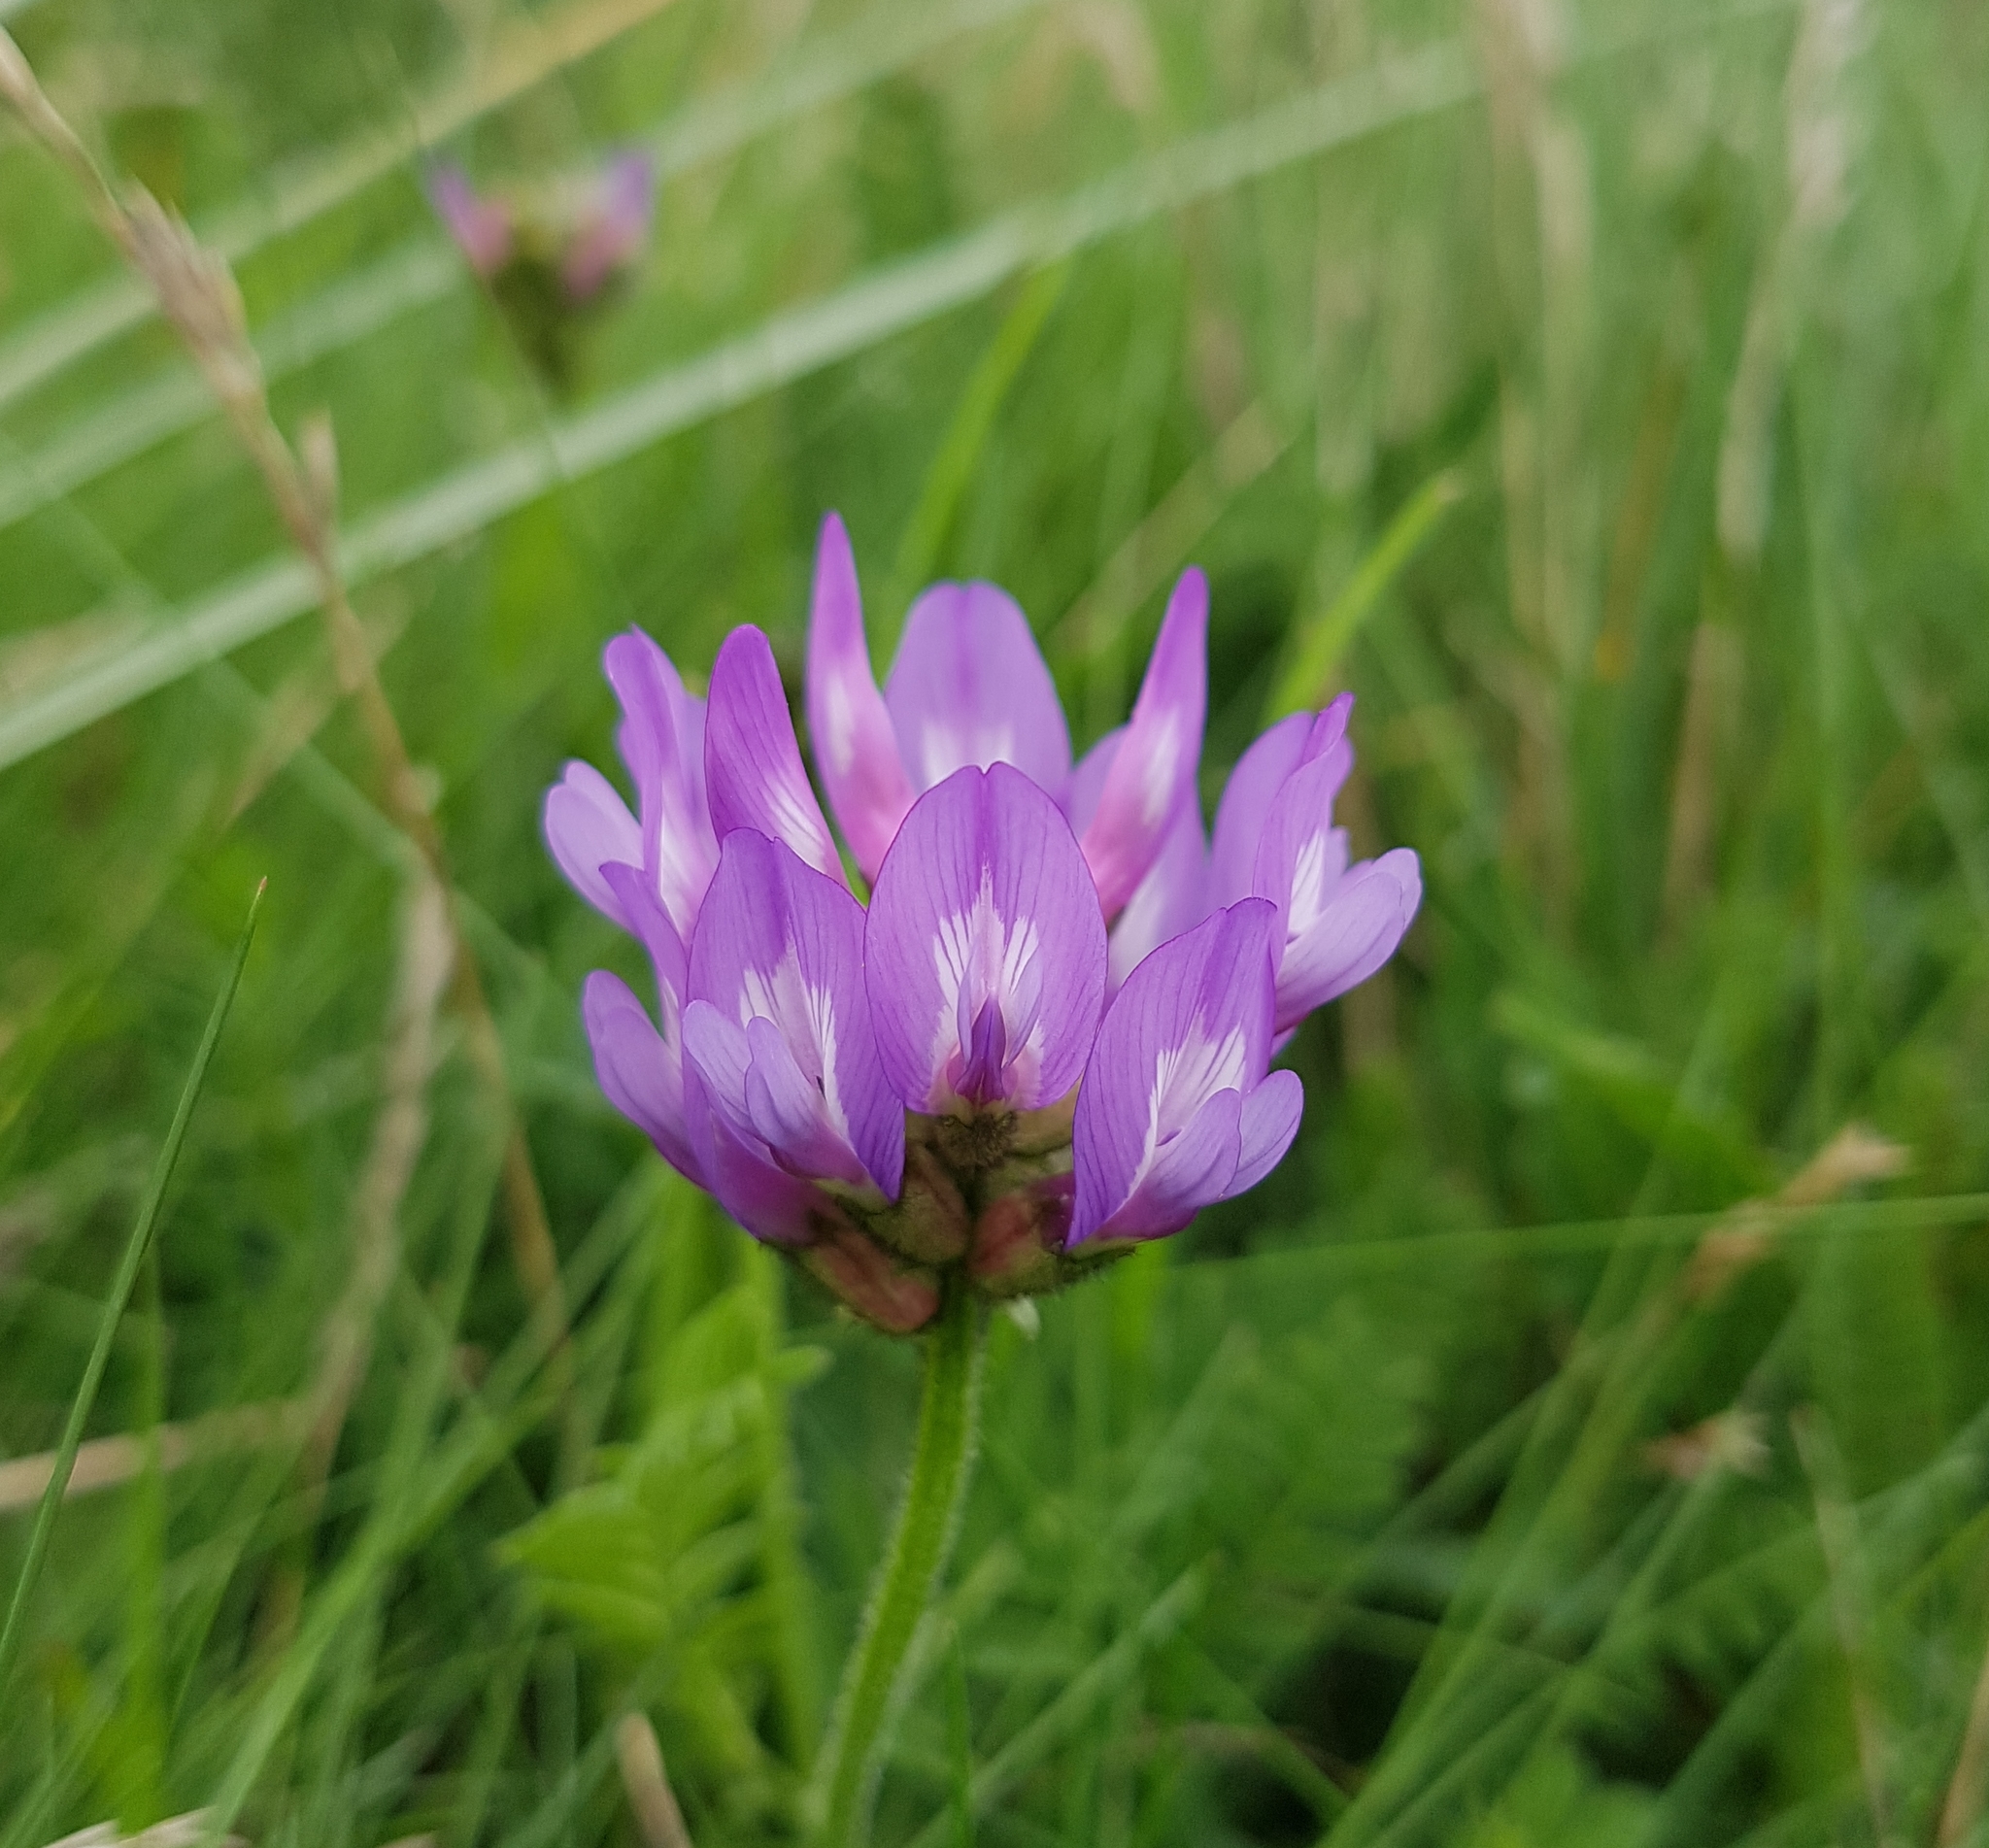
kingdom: Plantae
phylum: Tracheophyta
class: Magnoliopsida
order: Fabales
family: Fabaceae
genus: Astragalus
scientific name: Astragalus danicus
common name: Purple milk-vetch
